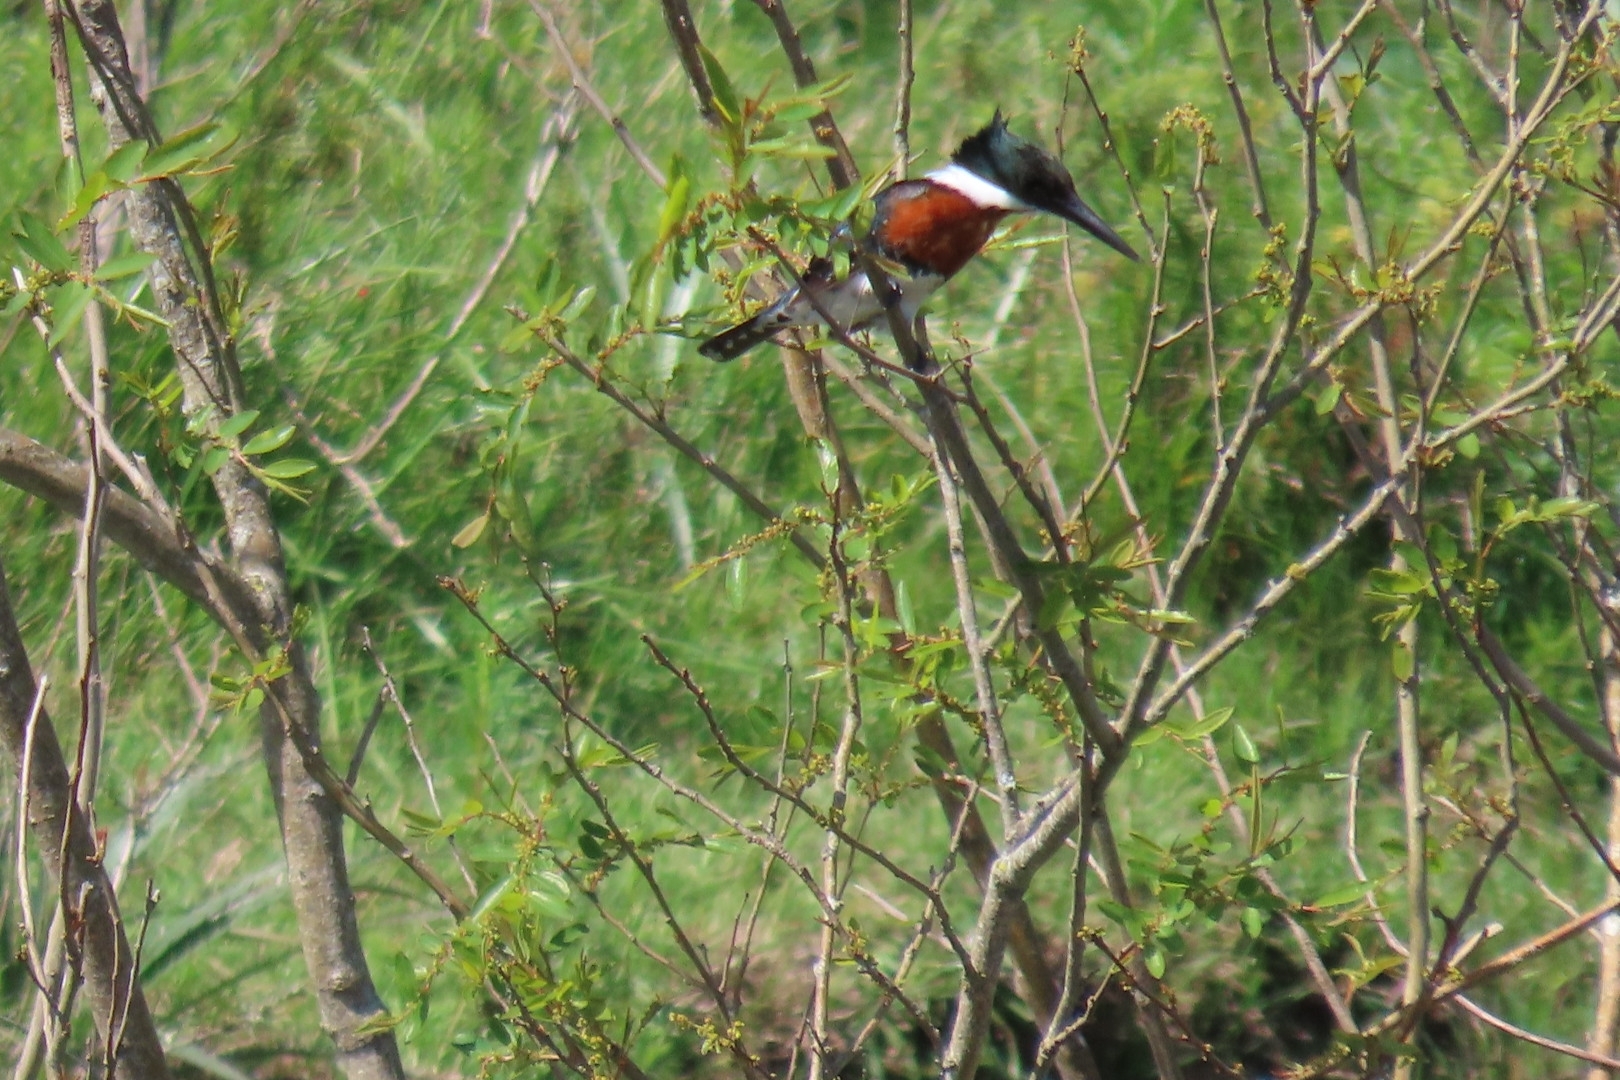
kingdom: Animalia
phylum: Chordata
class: Aves
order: Coraciiformes
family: Alcedinidae
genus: Chloroceryle
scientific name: Chloroceryle amazona
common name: Amazon kingfisher
